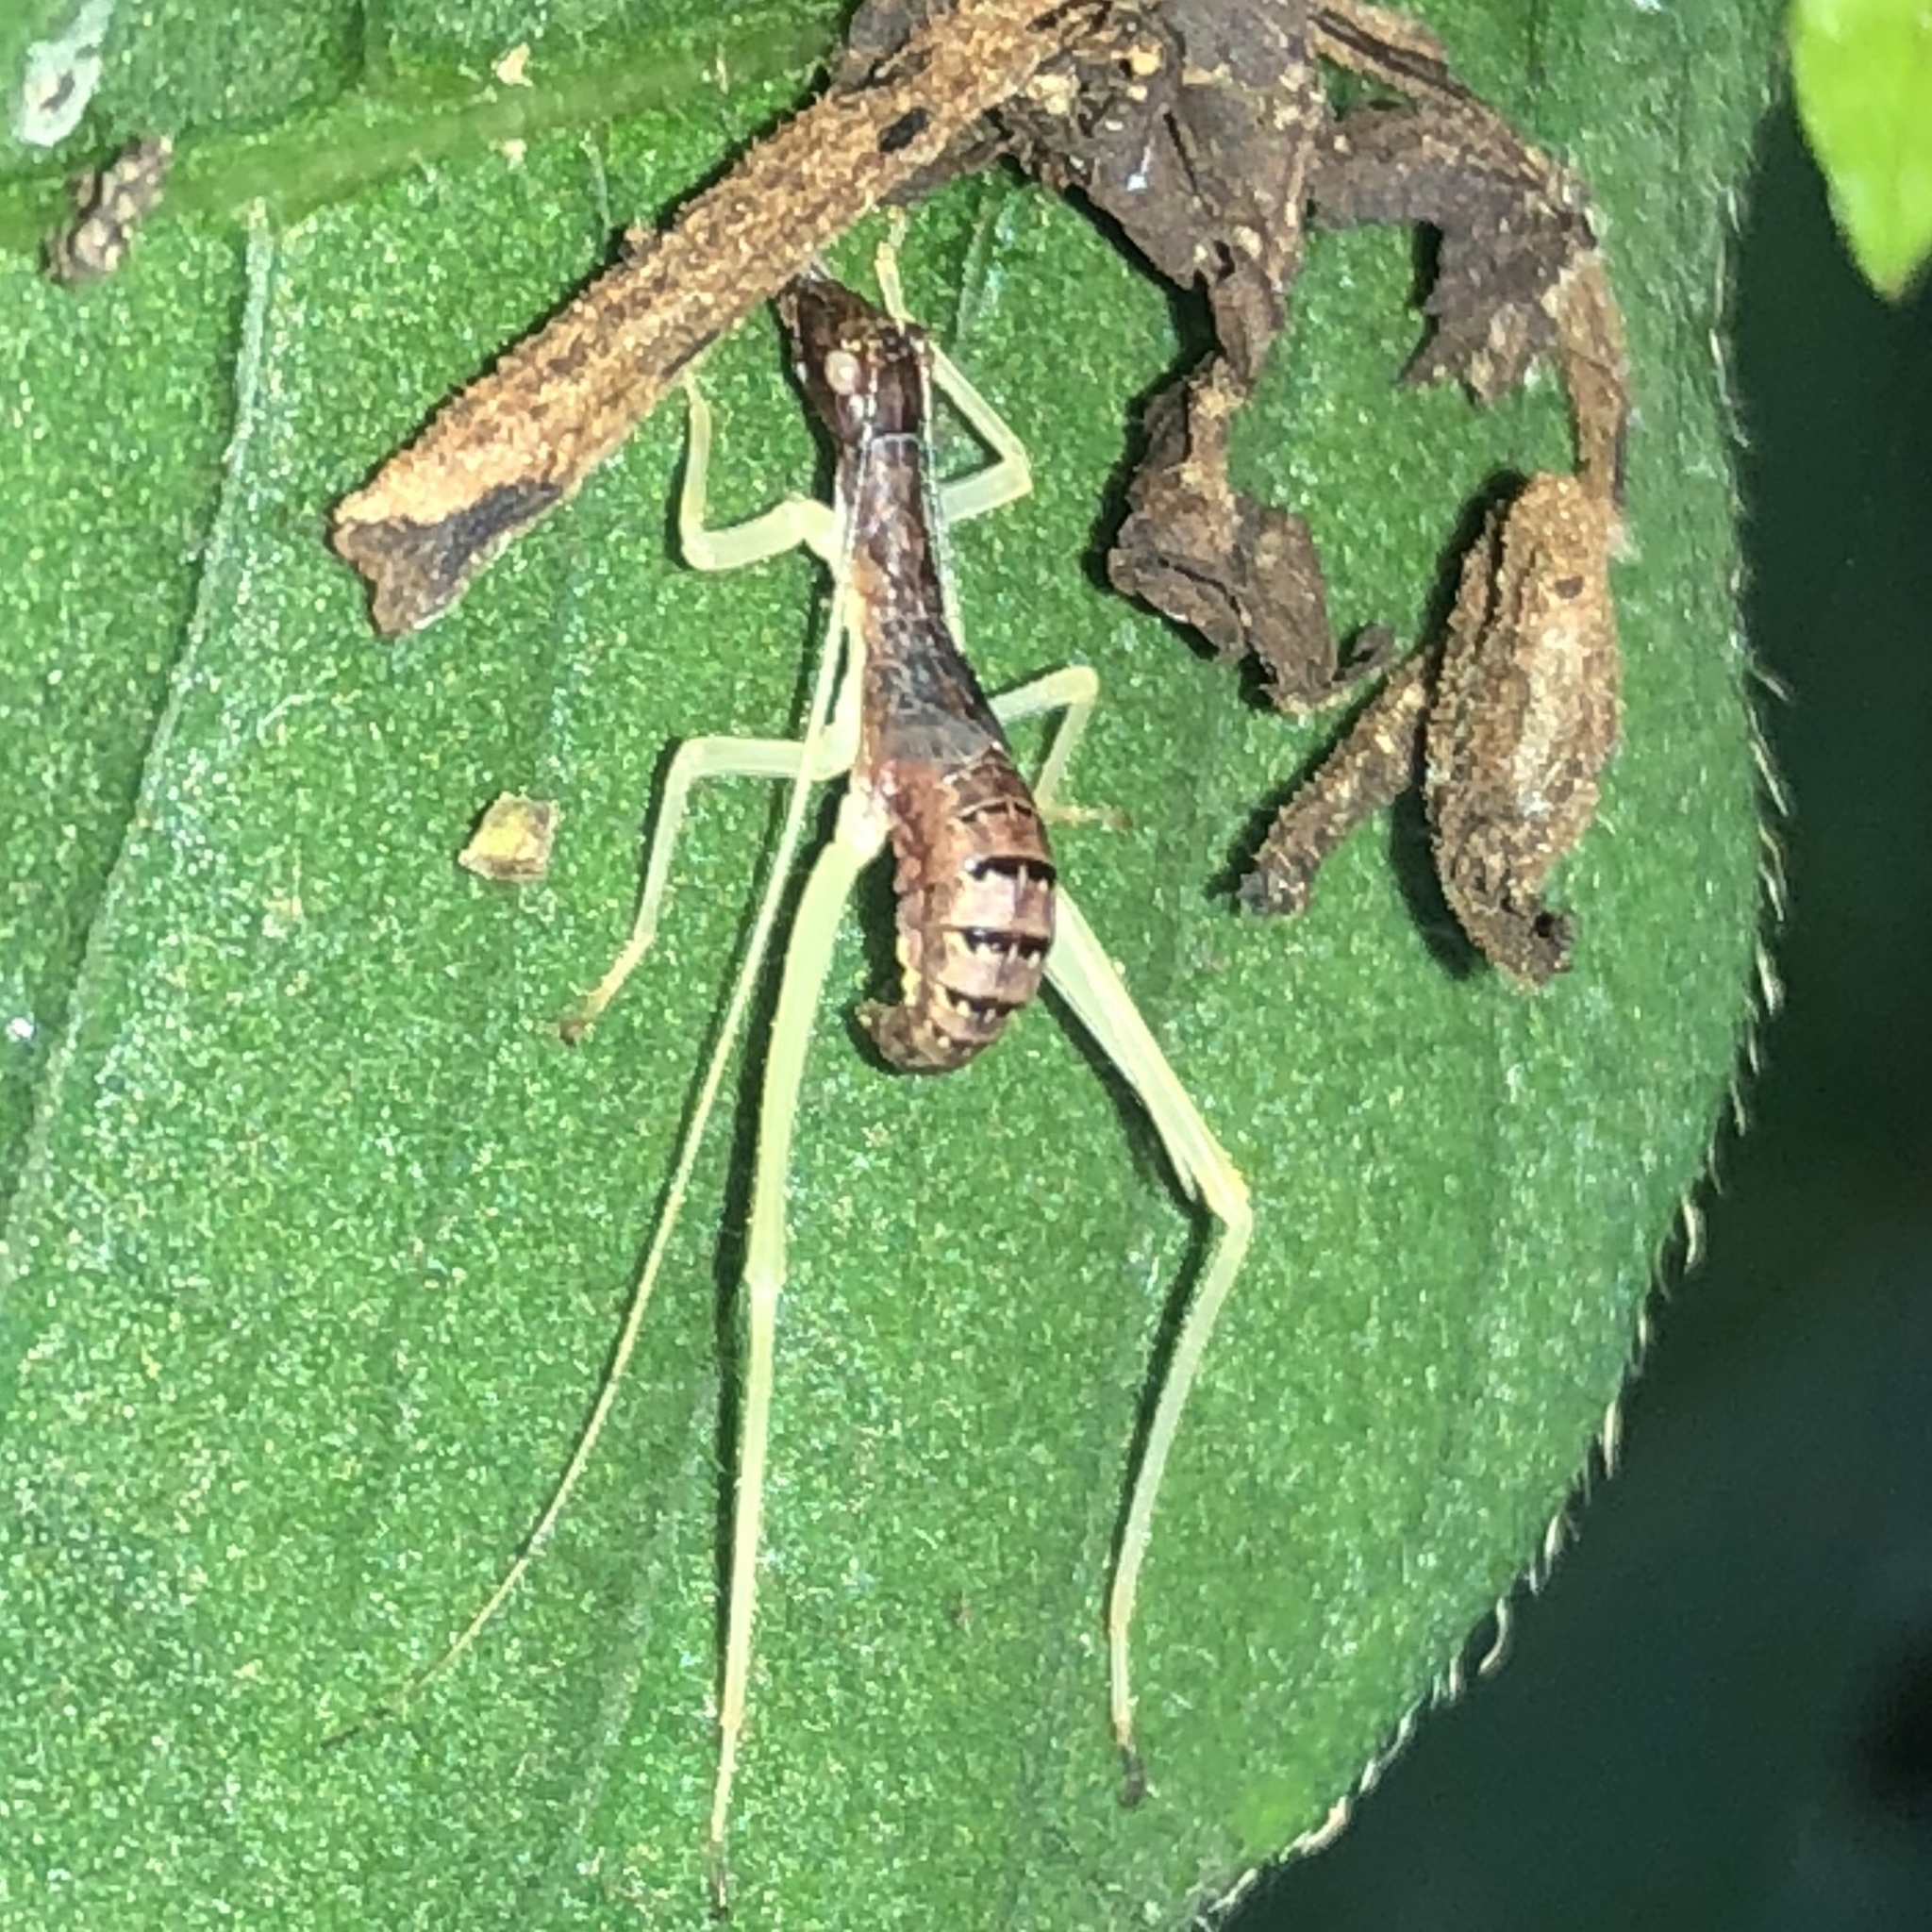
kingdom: Animalia
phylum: Arthropoda
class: Insecta
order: Orthoptera
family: Gryllidae
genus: Neoxabea
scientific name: Neoxabea bipunctata
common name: Two-spotted tree cricket
